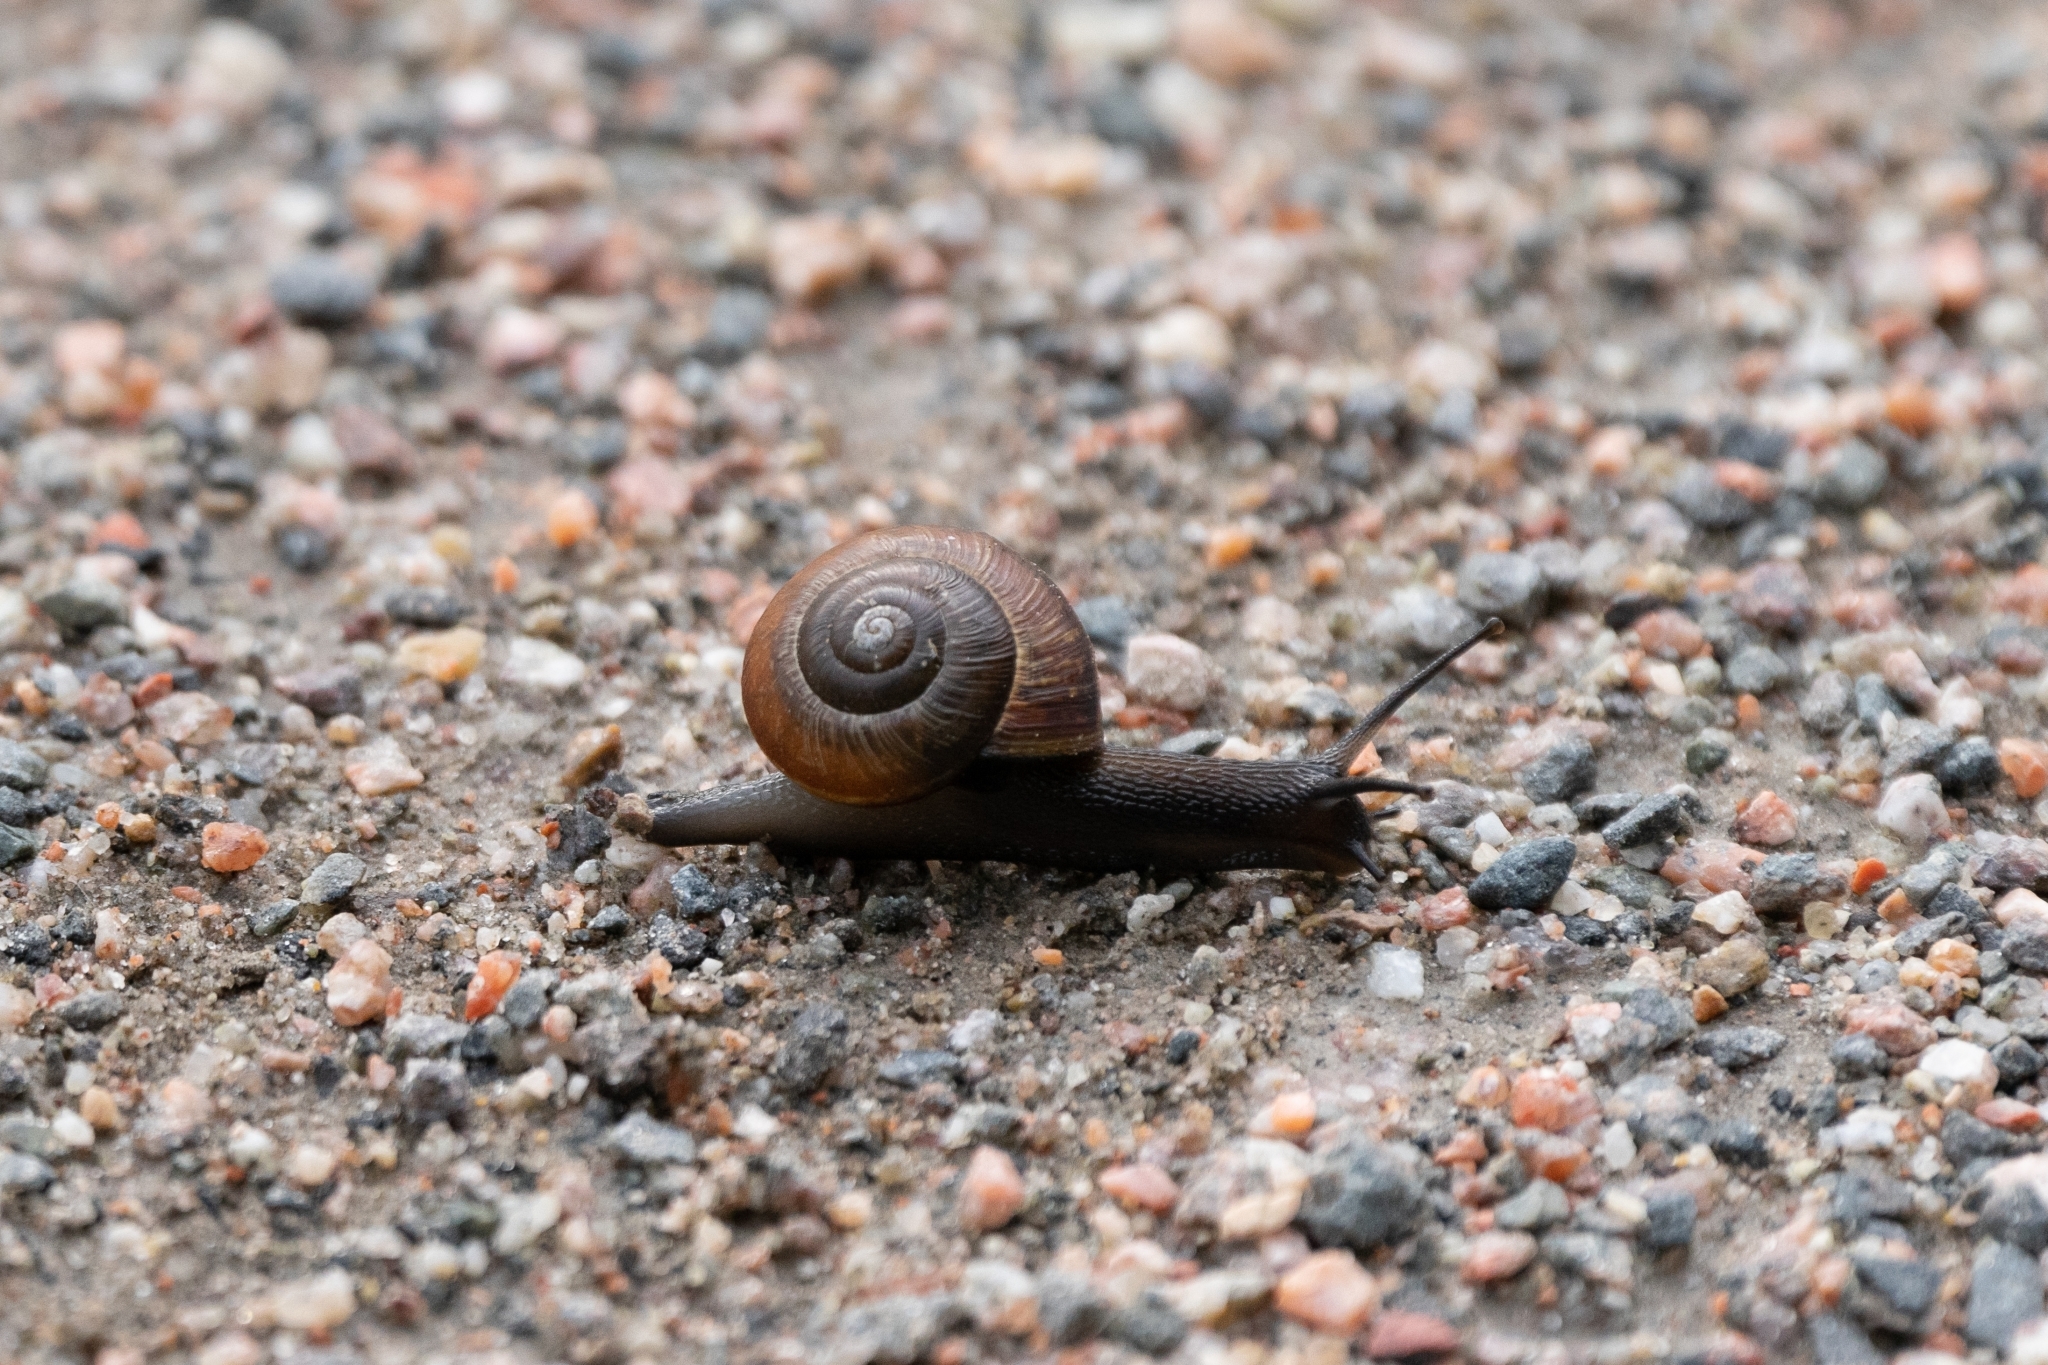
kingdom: Animalia
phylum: Mollusca
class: Gastropoda
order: Stylommatophora
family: Helicidae
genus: Arianta
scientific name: Arianta arbustorum
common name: Copse snail
